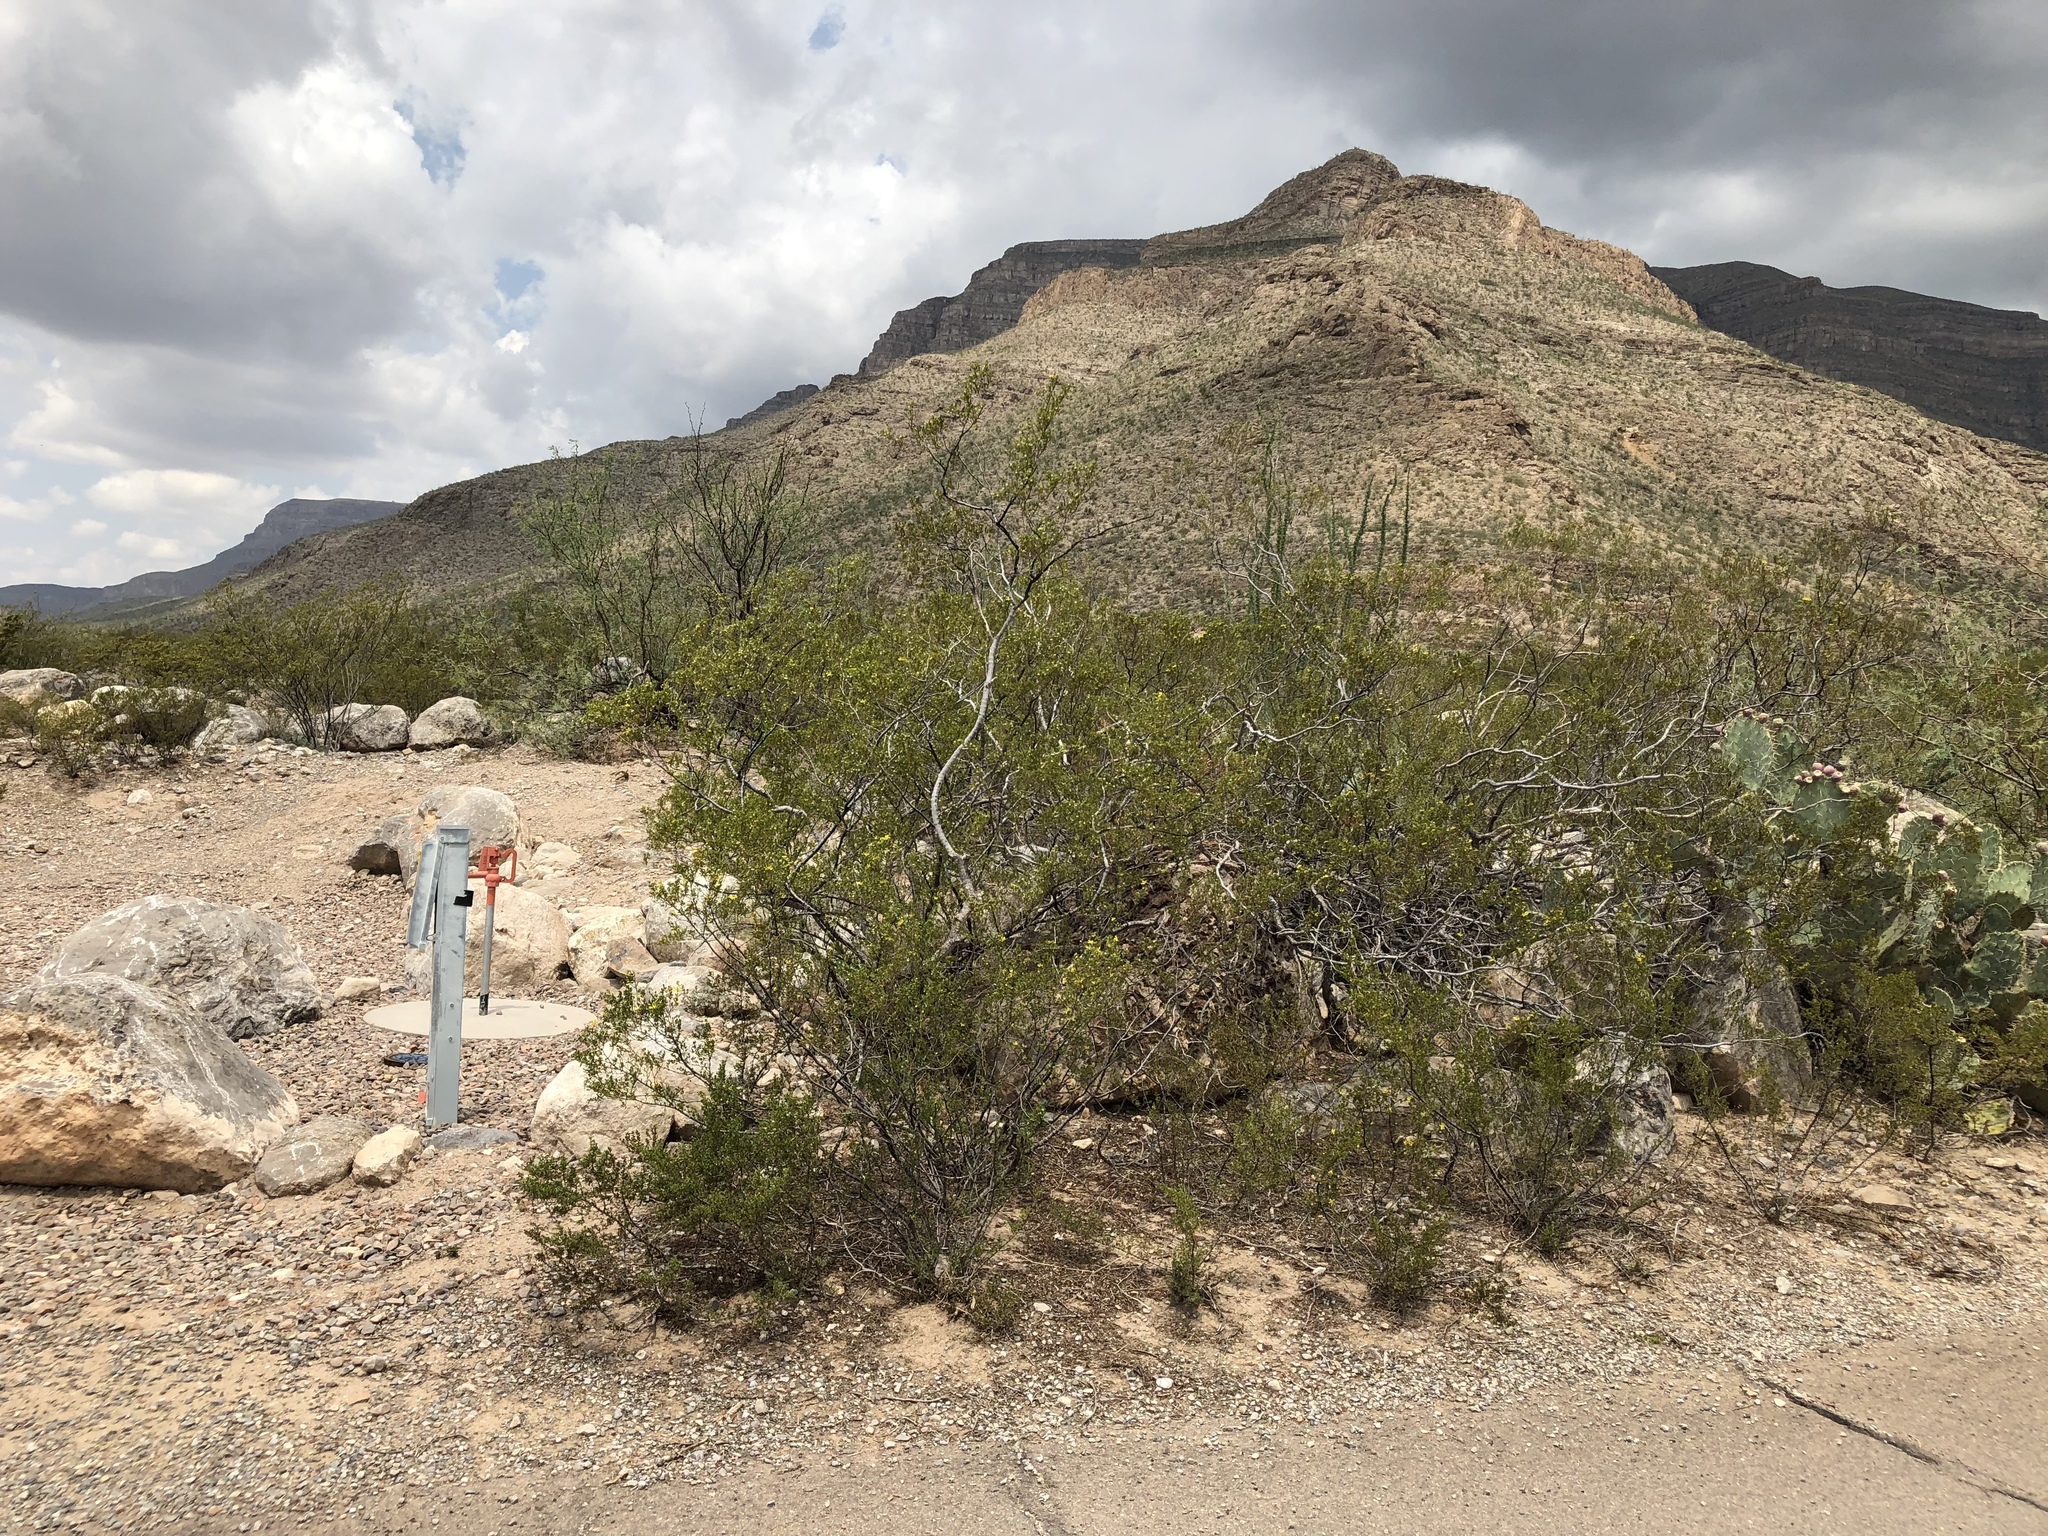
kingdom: Plantae
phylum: Tracheophyta
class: Magnoliopsida
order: Zygophyllales
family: Zygophyllaceae
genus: Larrea
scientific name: Larrea tridentata
